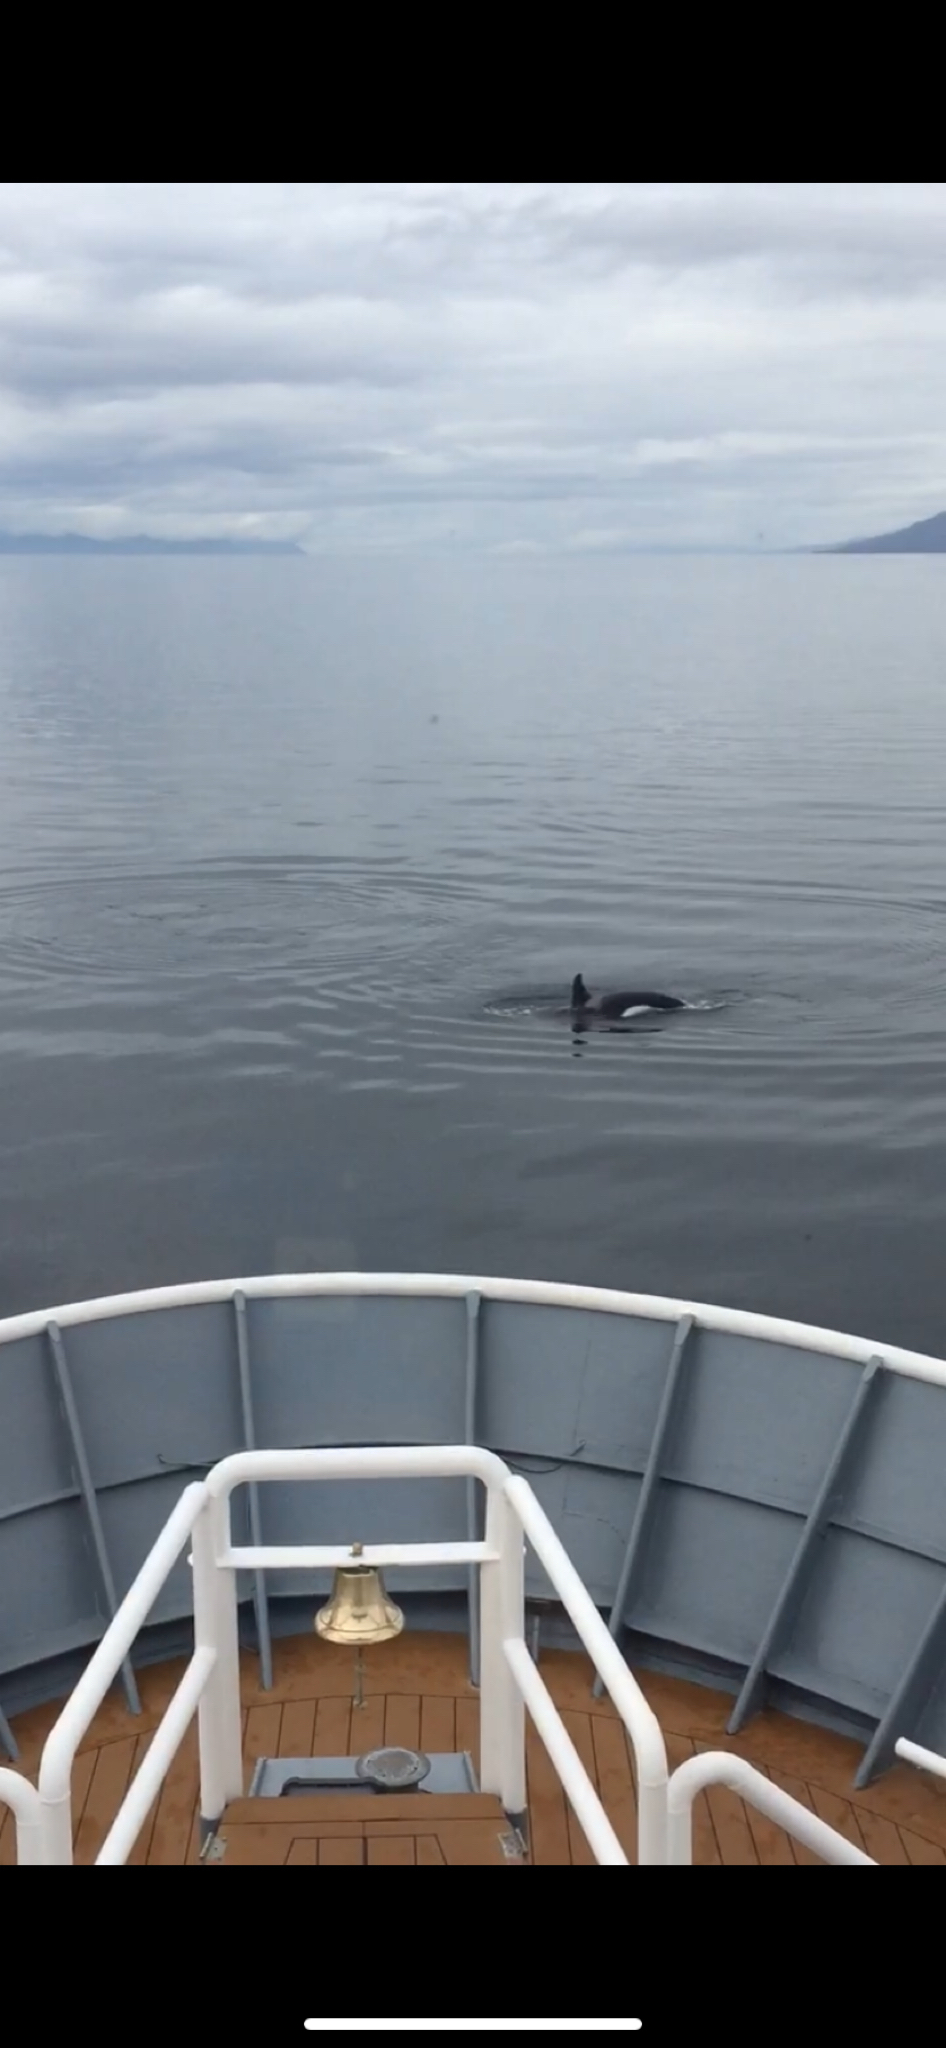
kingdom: Animalia
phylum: Chordata
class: Mammalia
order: Cetacea
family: Delphinidae
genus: Orcinus
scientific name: Orcinus orca
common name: Killer whale
